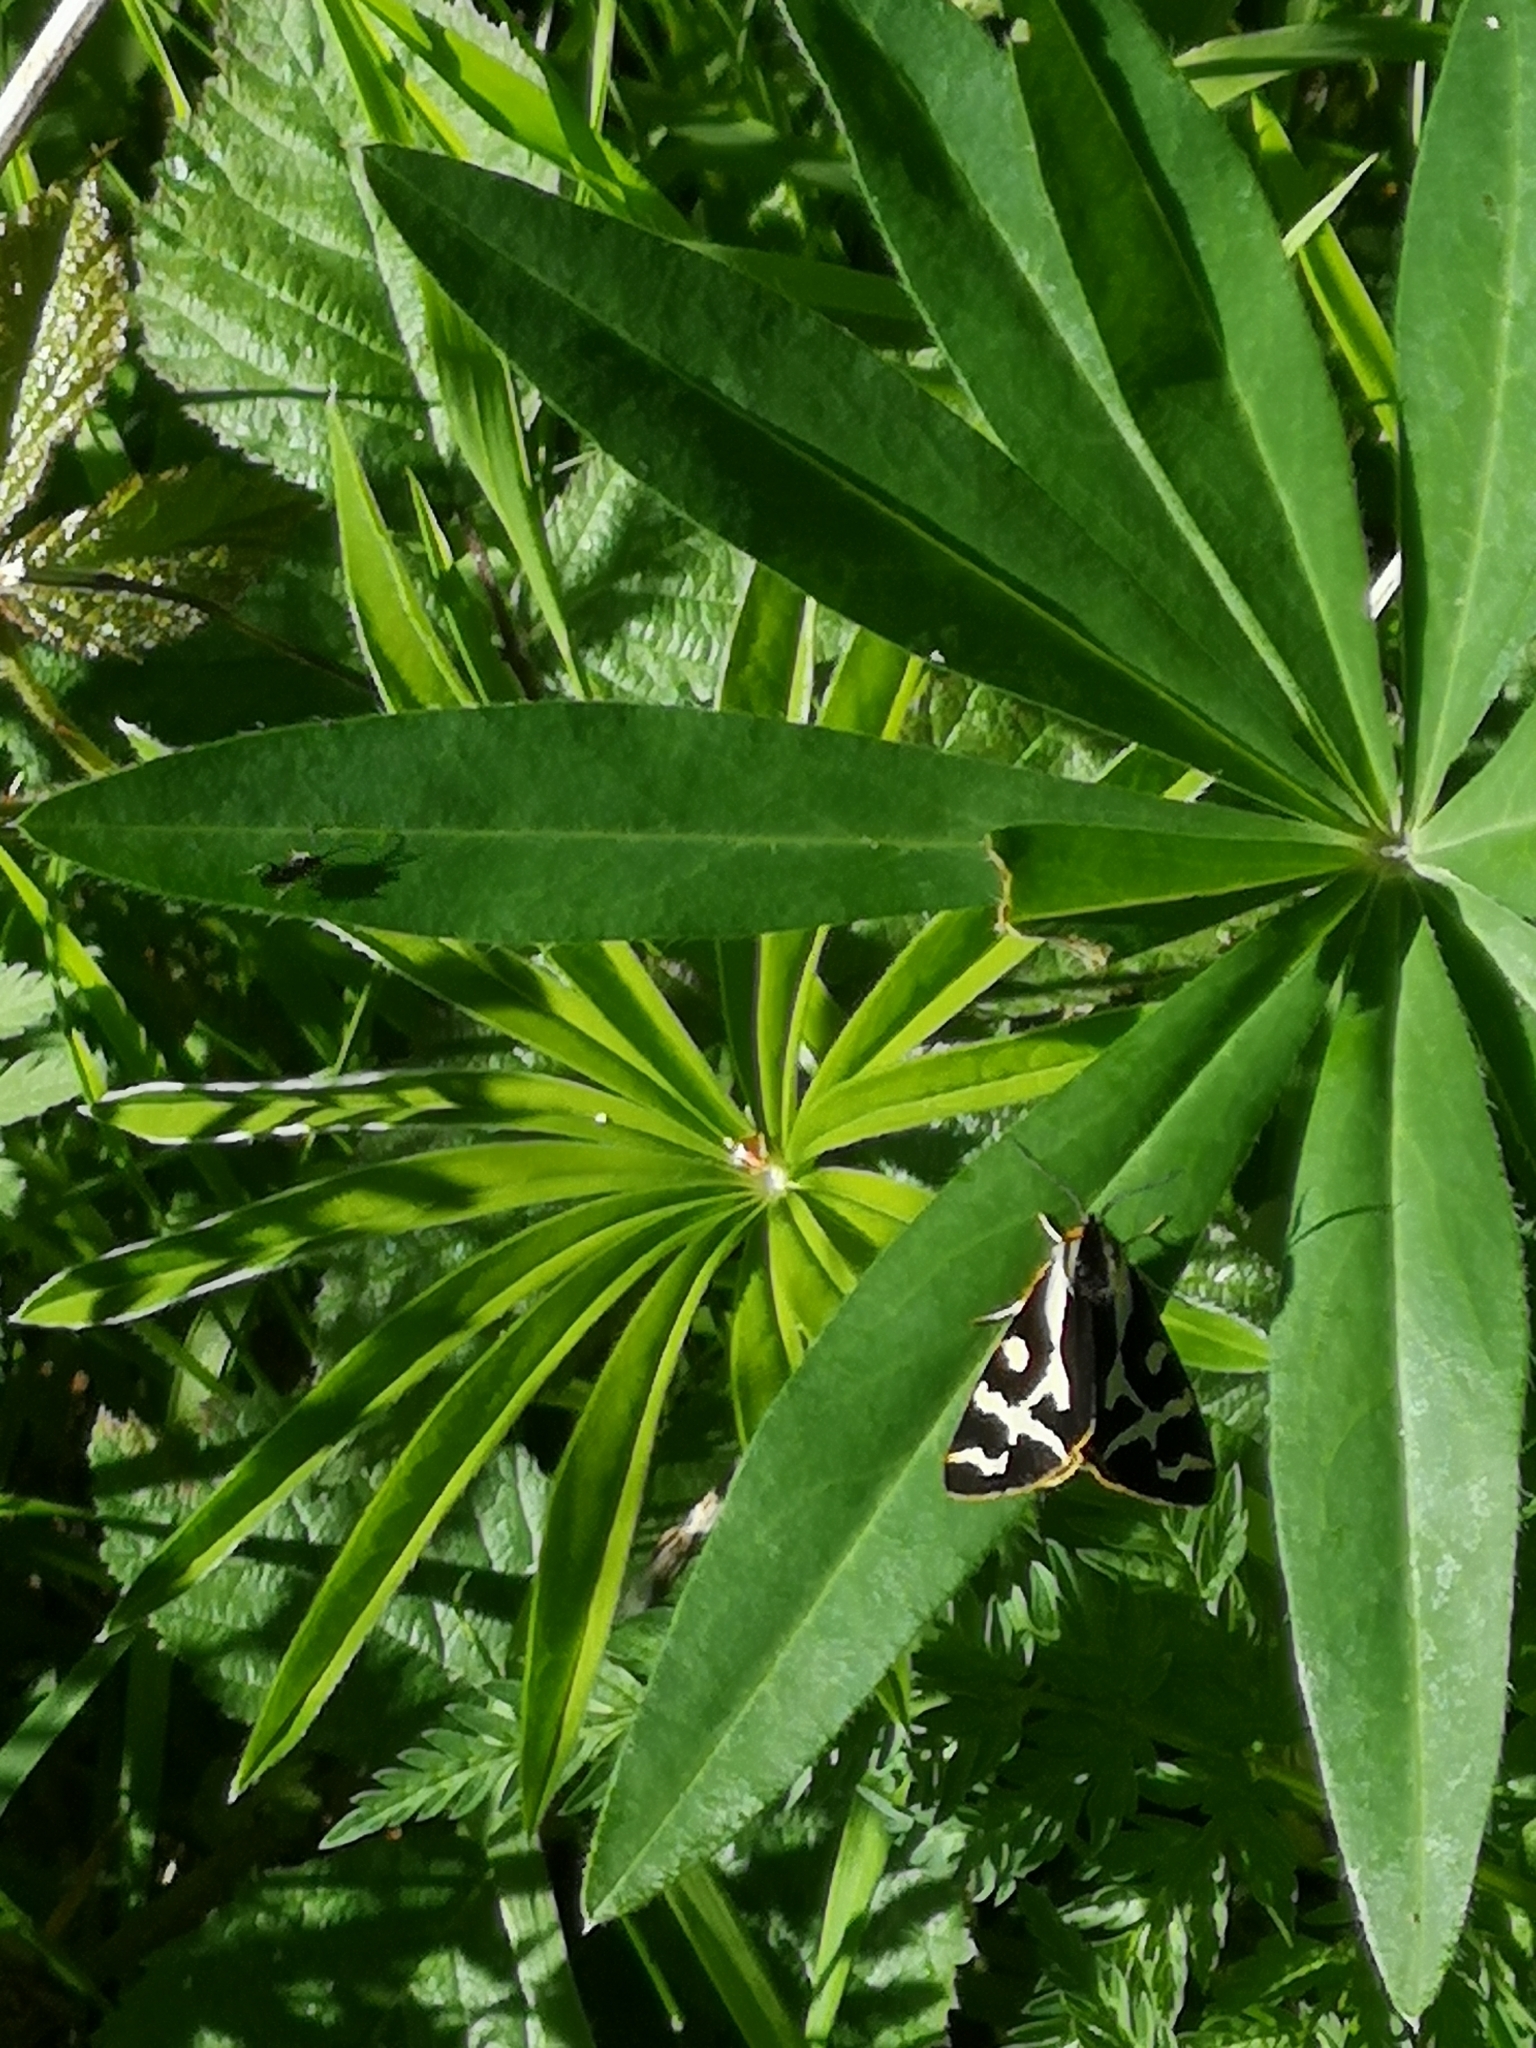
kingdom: Animalia
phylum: Arthropoda
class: Insecta
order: Lepidoptera
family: Erebidae
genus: Parasemia
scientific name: Parasemia plantaginis
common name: Wood tiger
